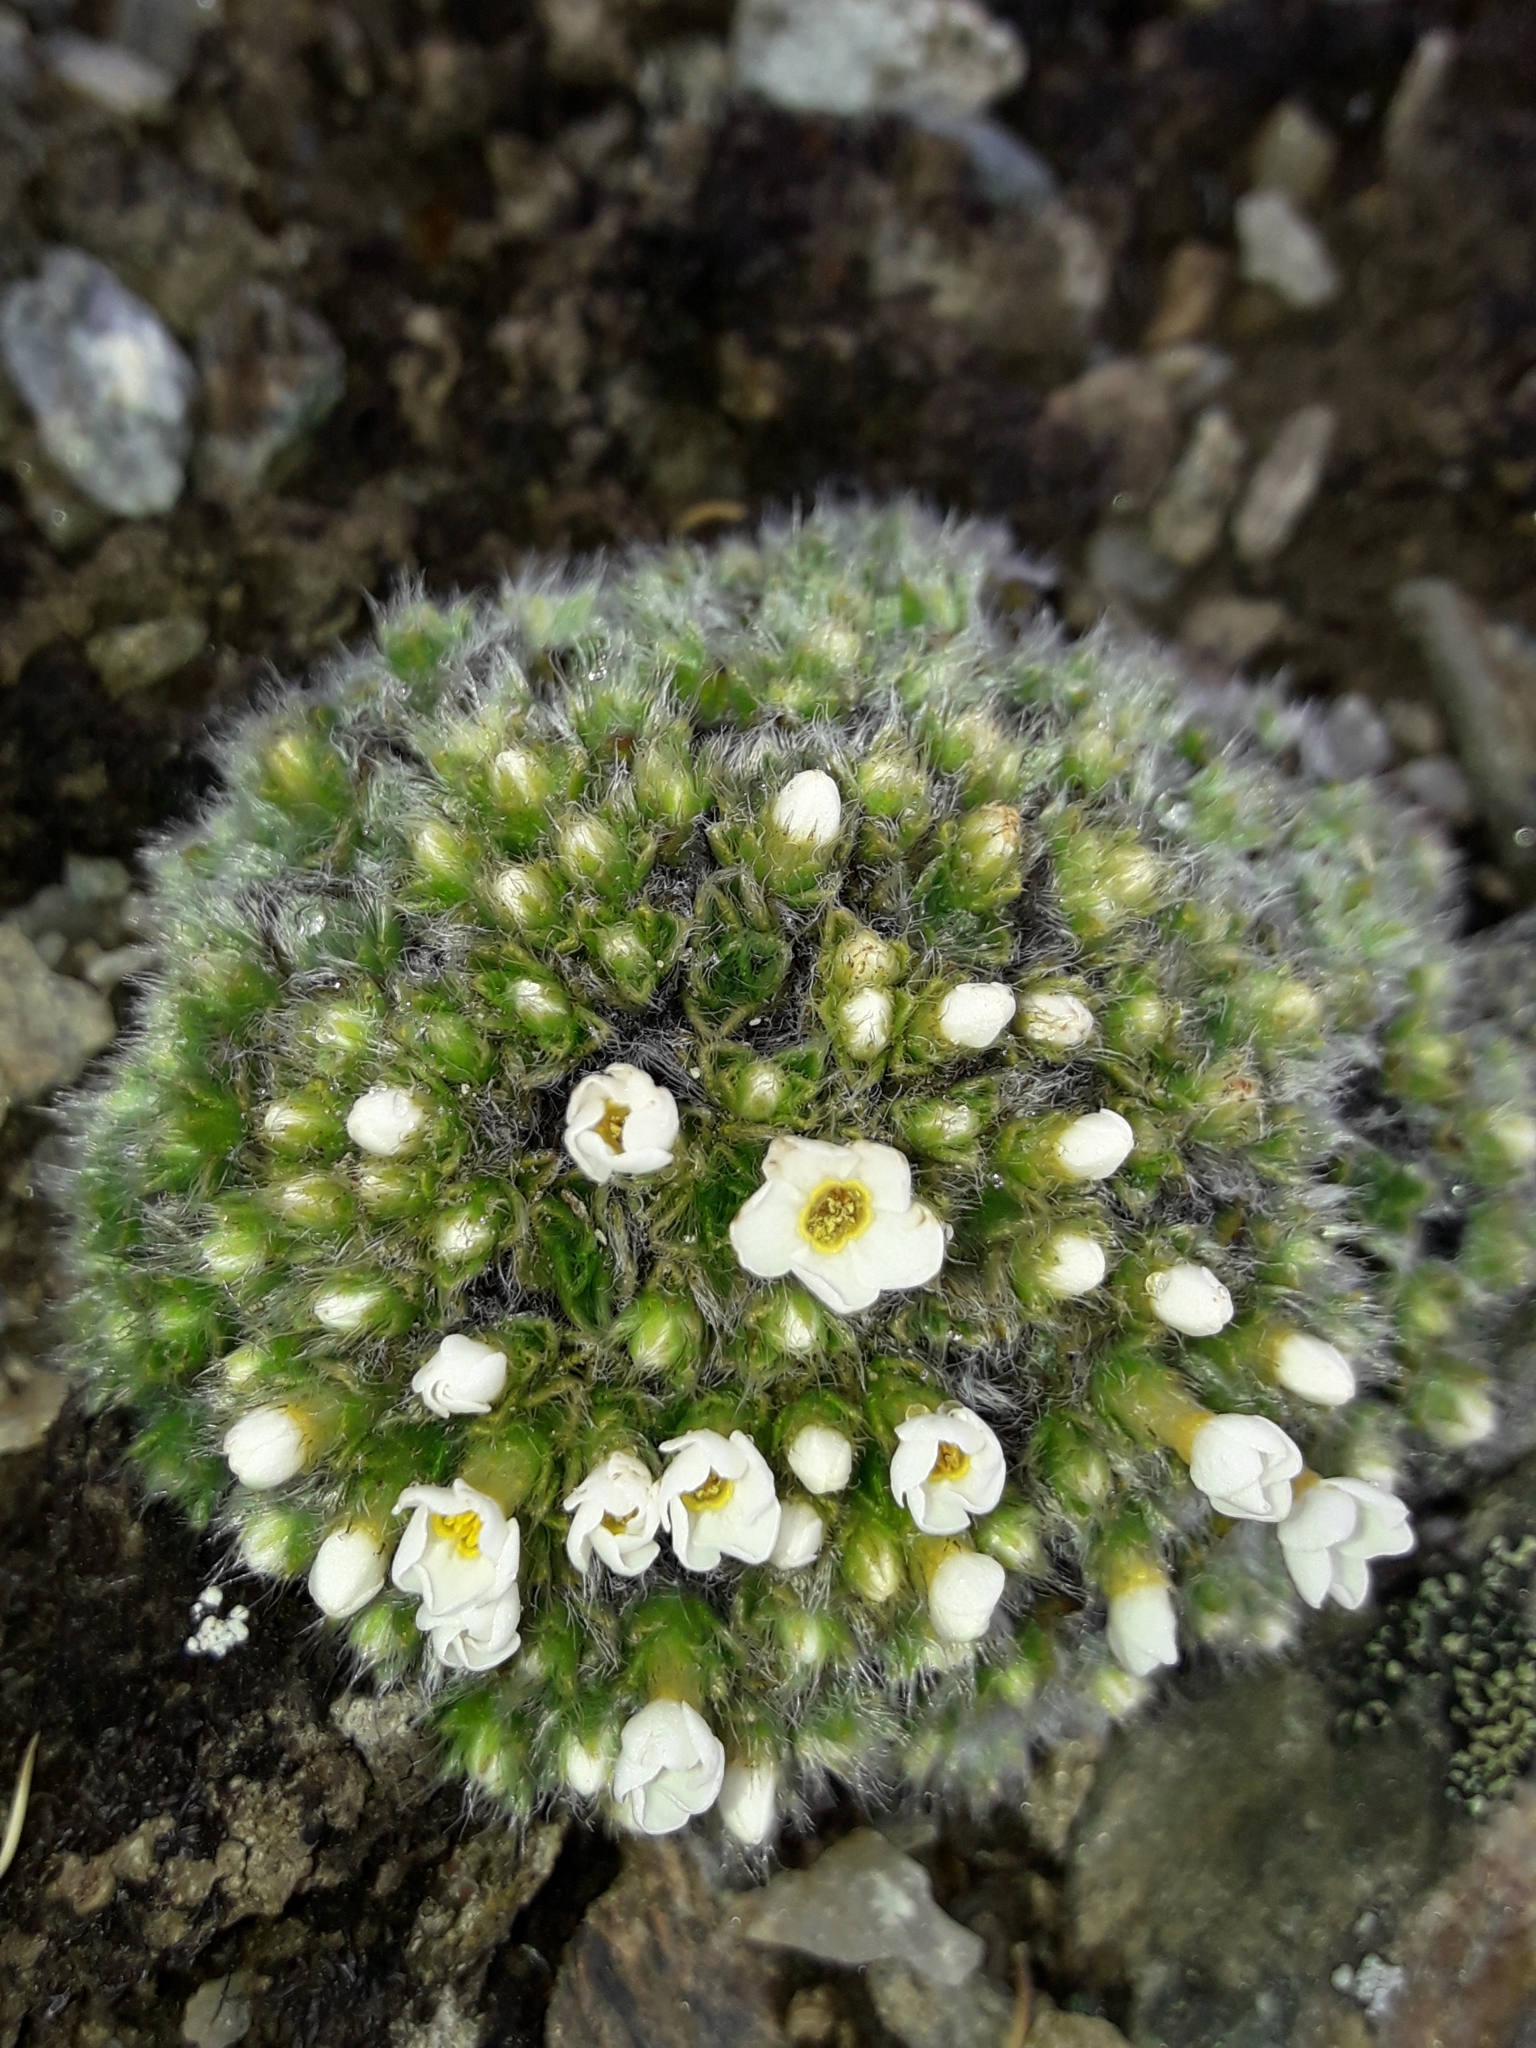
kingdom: Plantae
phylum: Tracheophyta
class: Magnoliopsida
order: Boraginales
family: Boraginaceae
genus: Myosotis
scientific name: Myosotis pulvinaris
